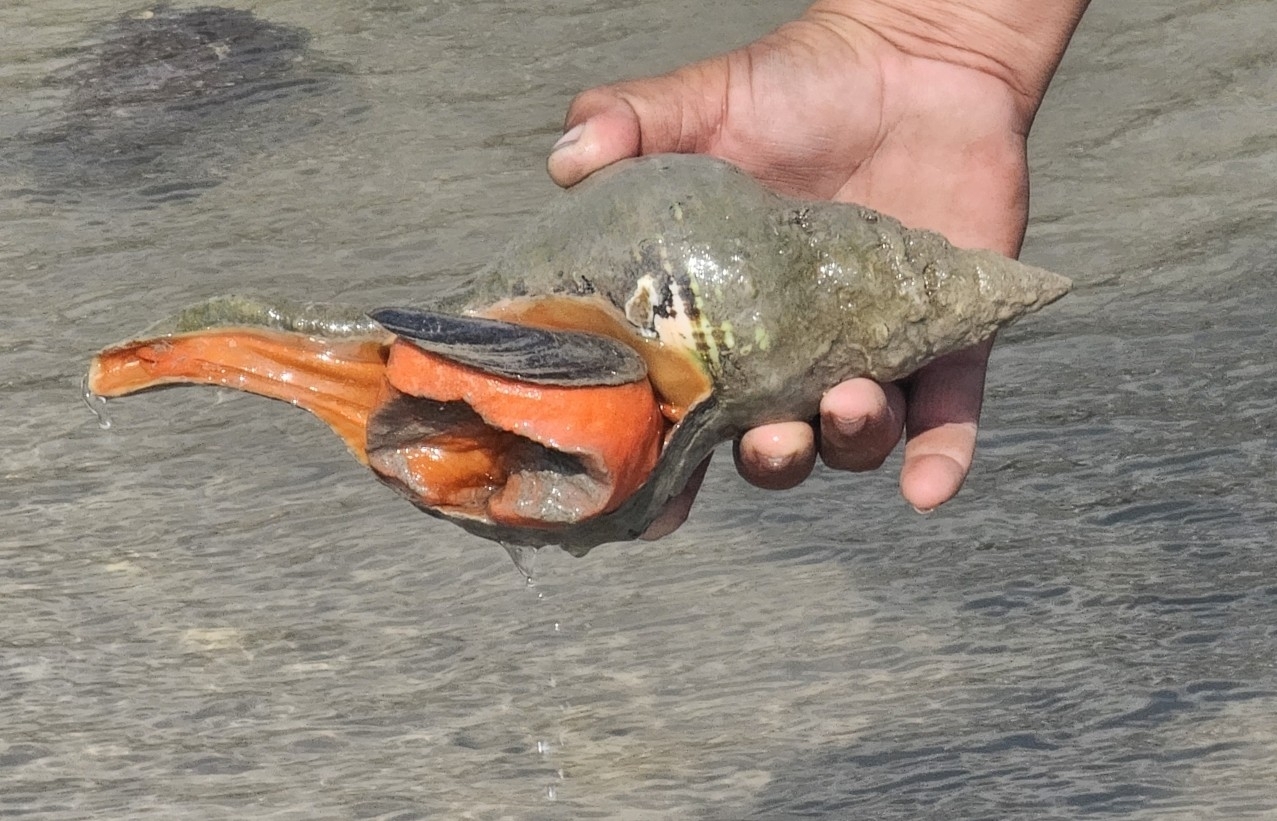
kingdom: Animalia
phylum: Mollusca
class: Gastropoda
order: Neogastropoda
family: Fasciolariidae
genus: Triplofusus
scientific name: Triplofusus giganteus
